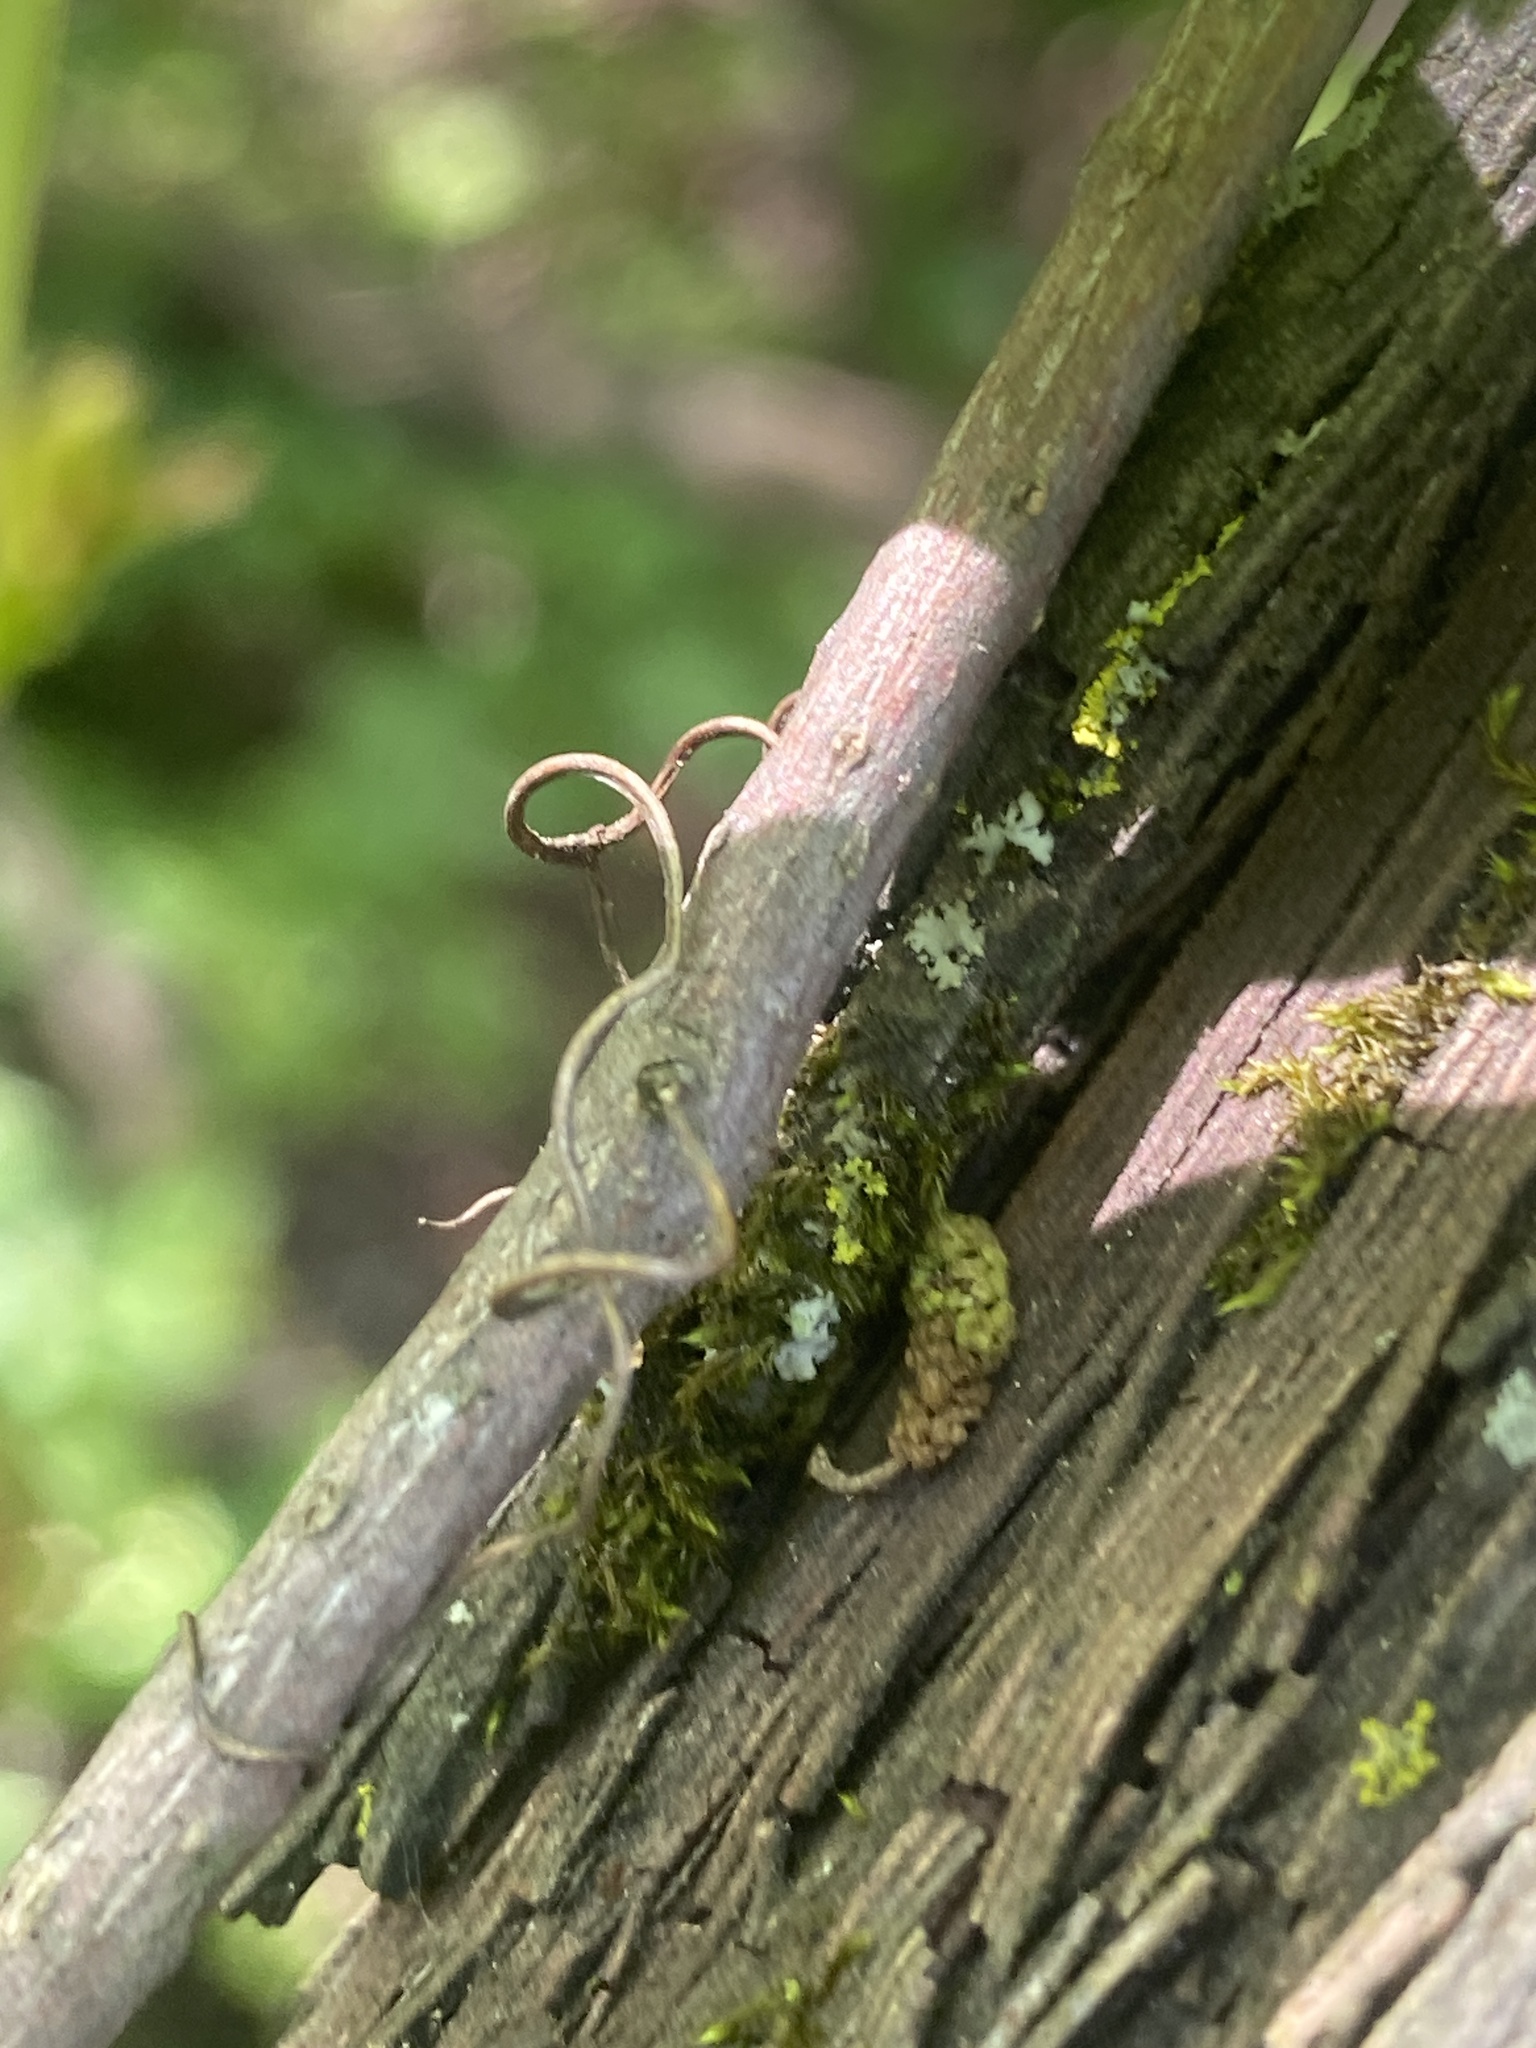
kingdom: Plantae
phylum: Tracheophyta
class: Magnoliopsida
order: Vitales
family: Vitaceae
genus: Parthenocissus
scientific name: Parthenocissus quinquefolia
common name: Virginia-creeper
